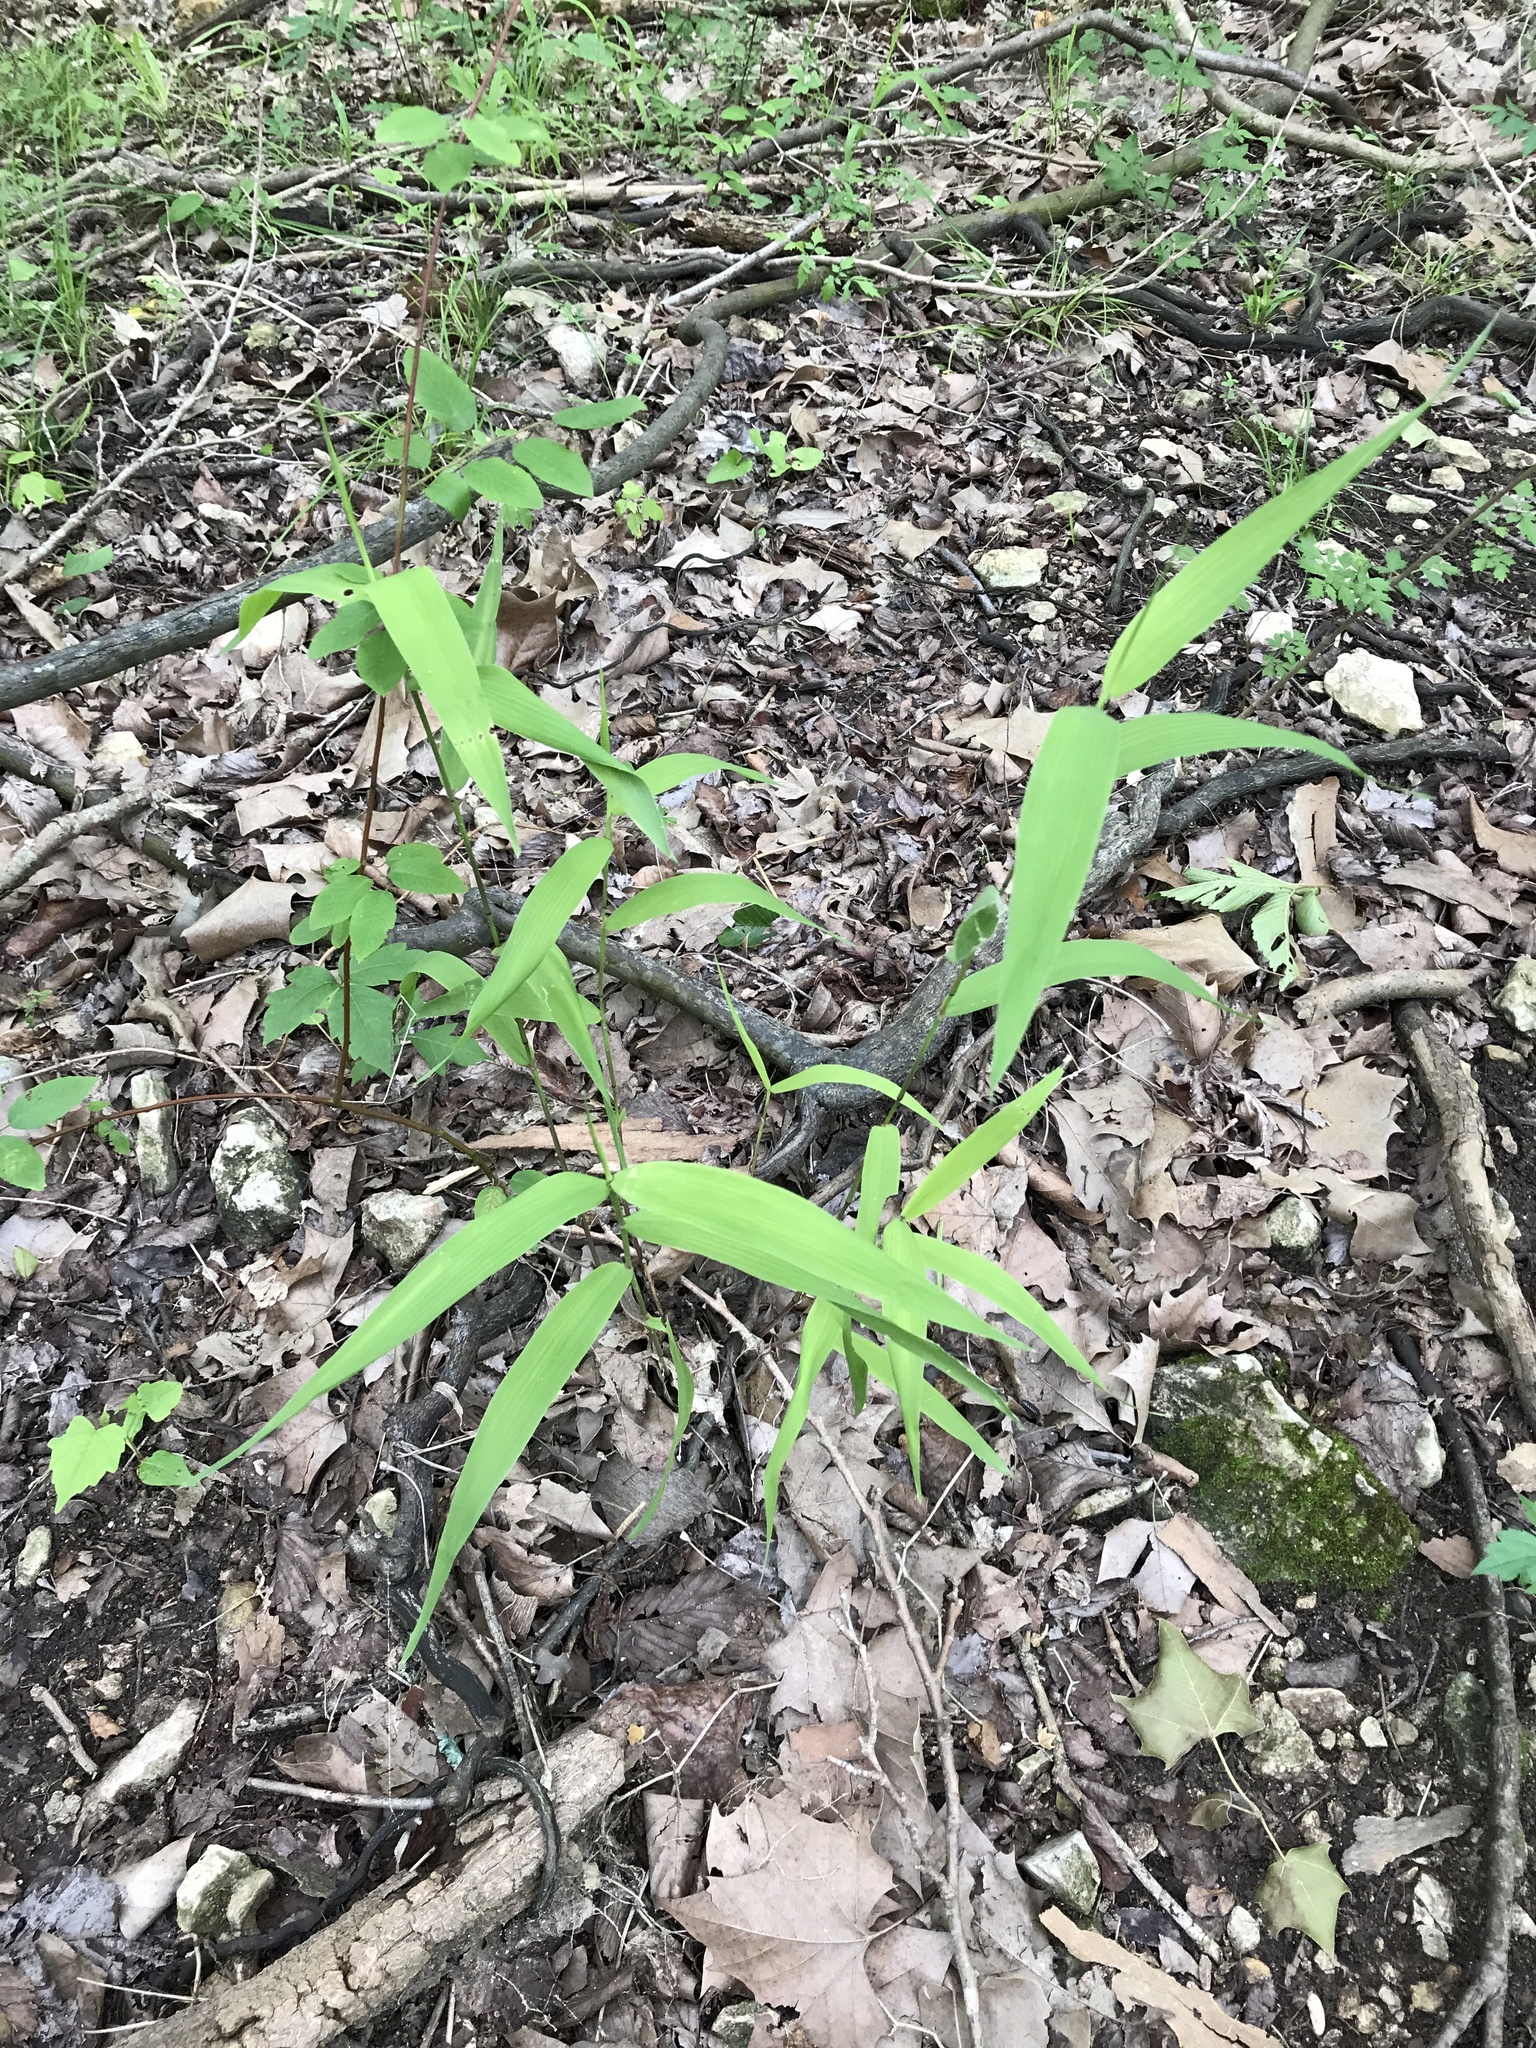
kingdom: Plantae
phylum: Tracheophyta
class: Liliopsida
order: Poales
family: Poaceae
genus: Chasmanthium
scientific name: Chasmanthium latifolium
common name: Broad-leaved chasmanthium
